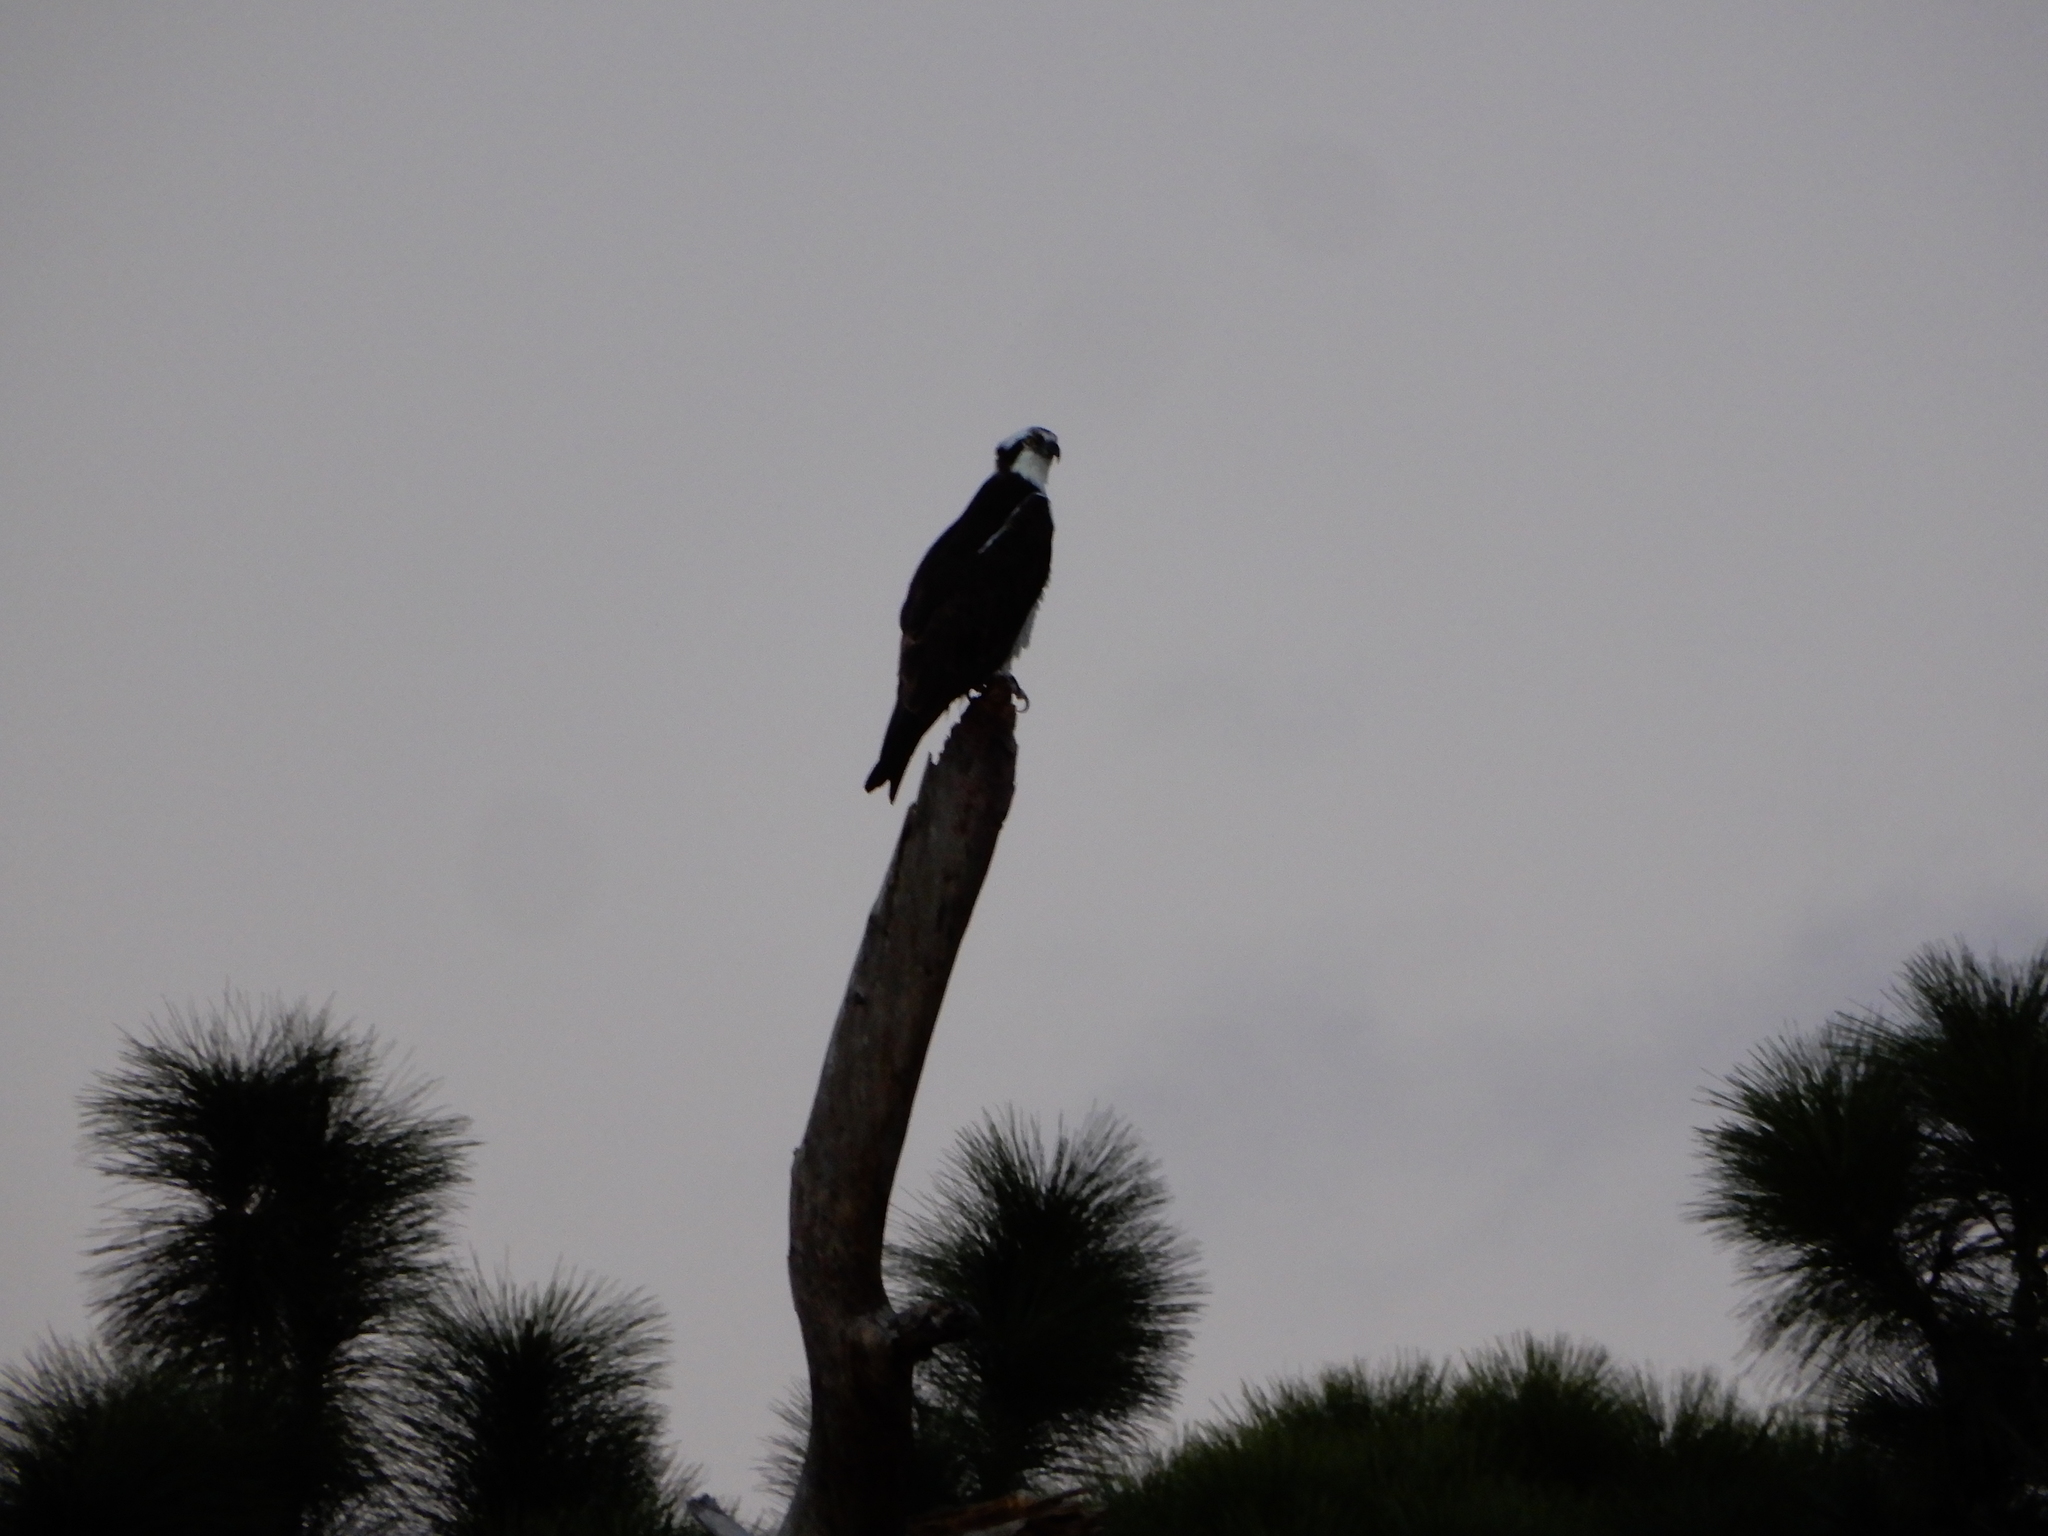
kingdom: Animalia
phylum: Chordata
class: Aves
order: Accipitriformes
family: Pandionidae
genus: Pandion
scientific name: Pandion haliaetus
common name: Osprey
